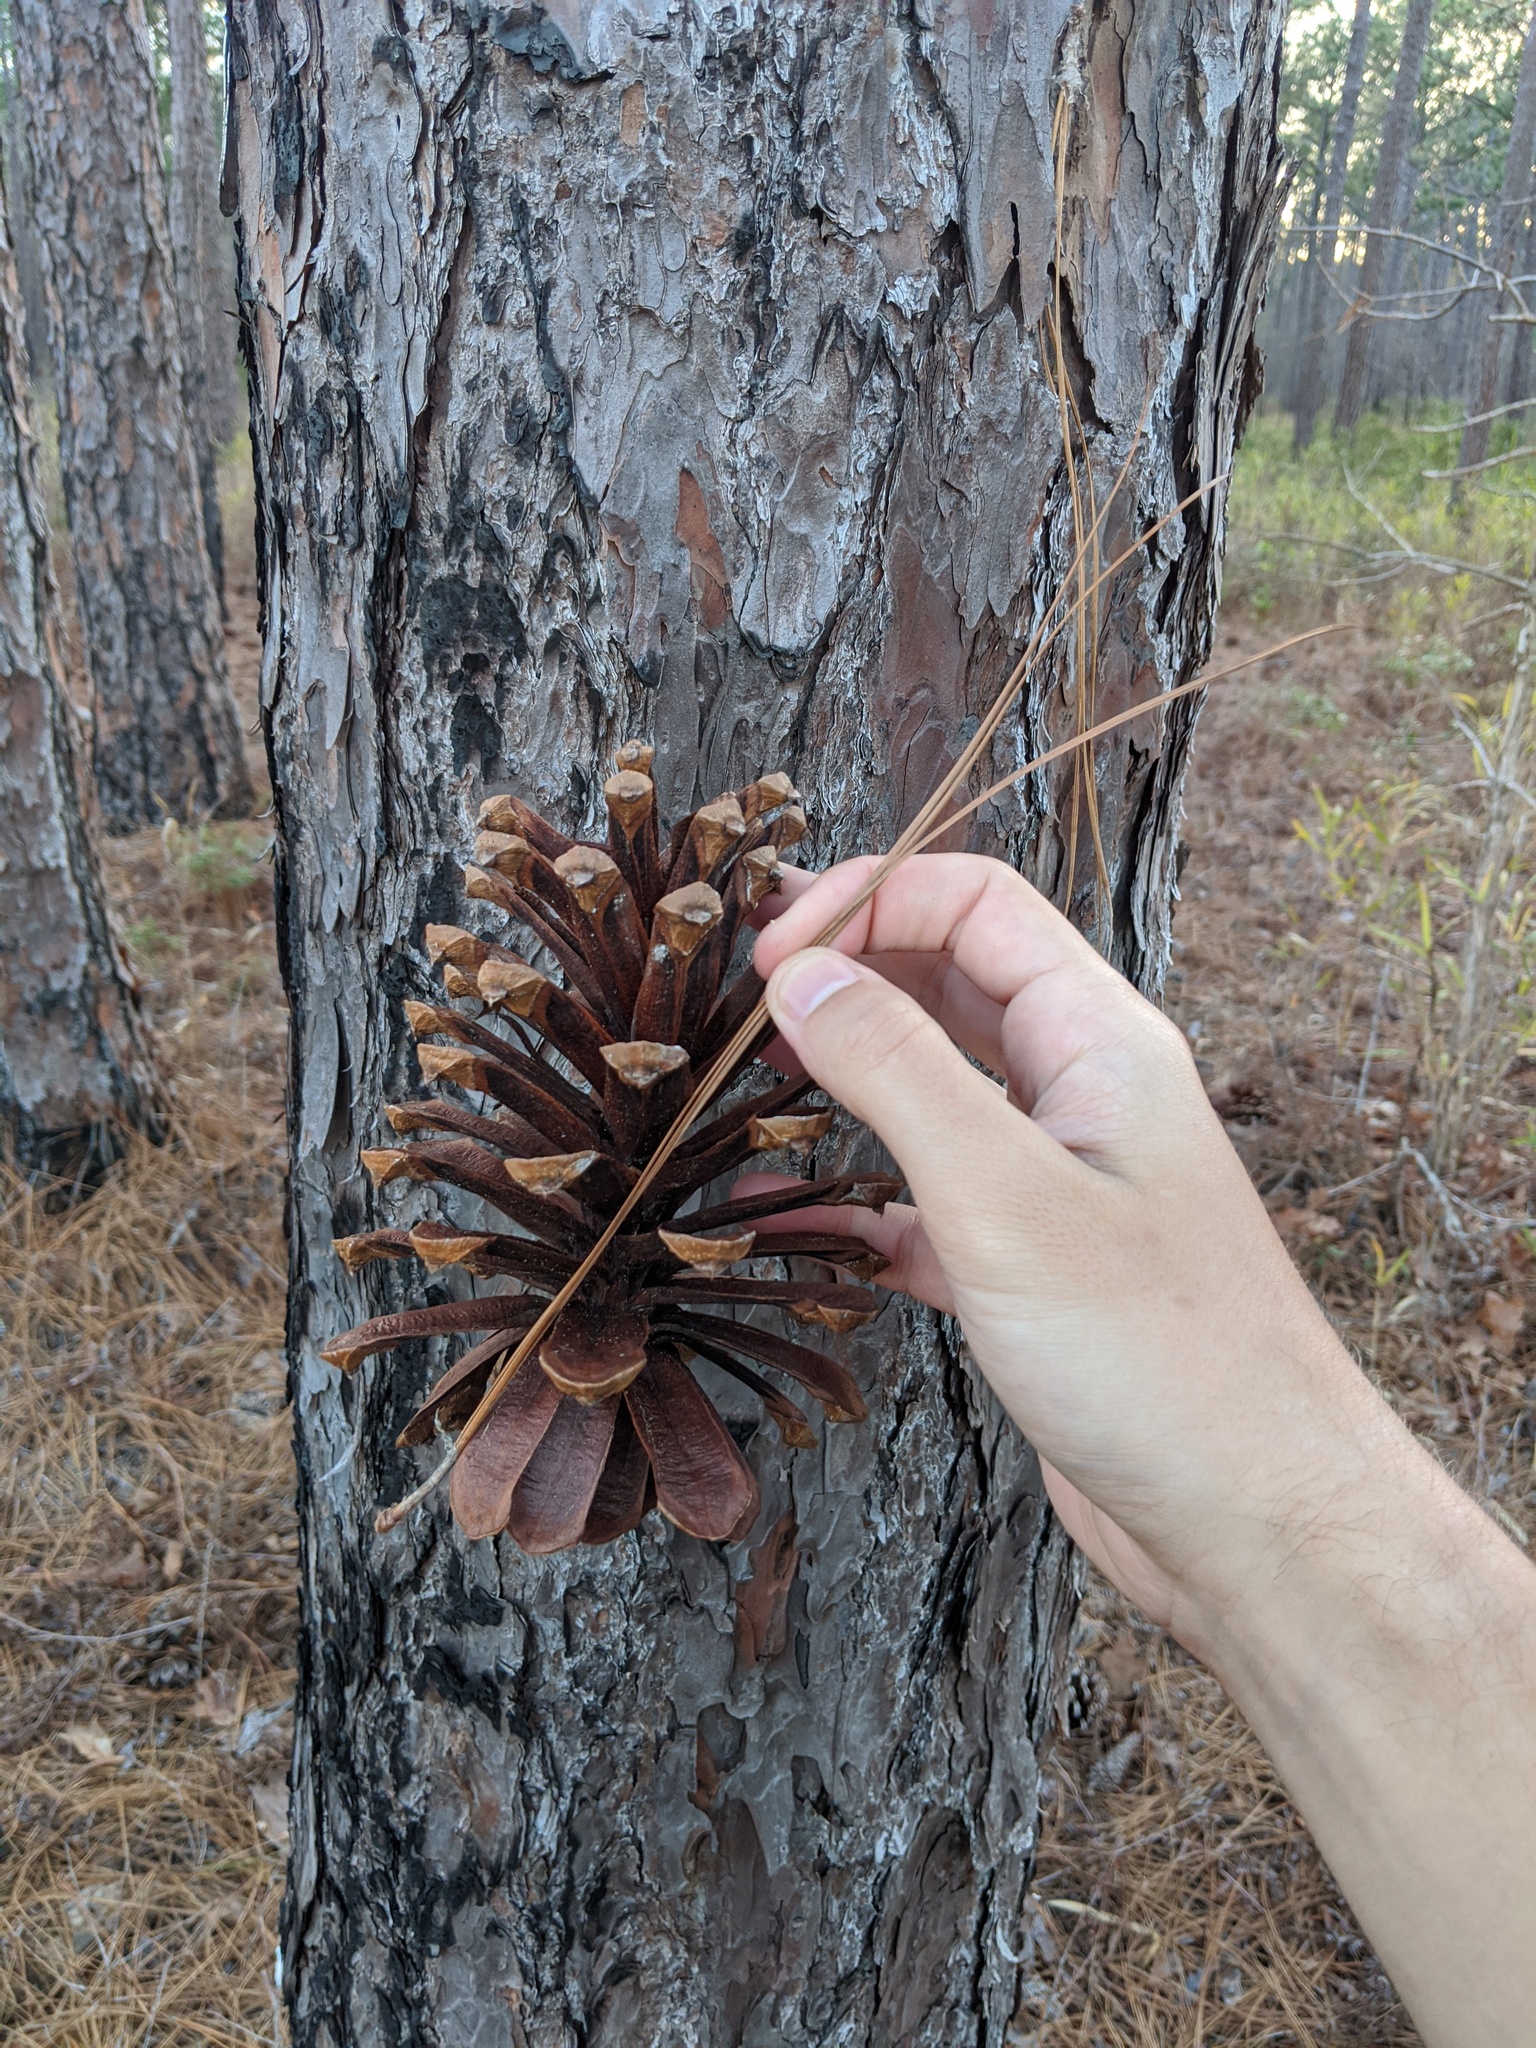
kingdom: Plantae
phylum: Tracheophyta
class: Pinopsida
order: Pinales
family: Pinaceae
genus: Pinus
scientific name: Pinus palustris
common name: Longleaf pine
